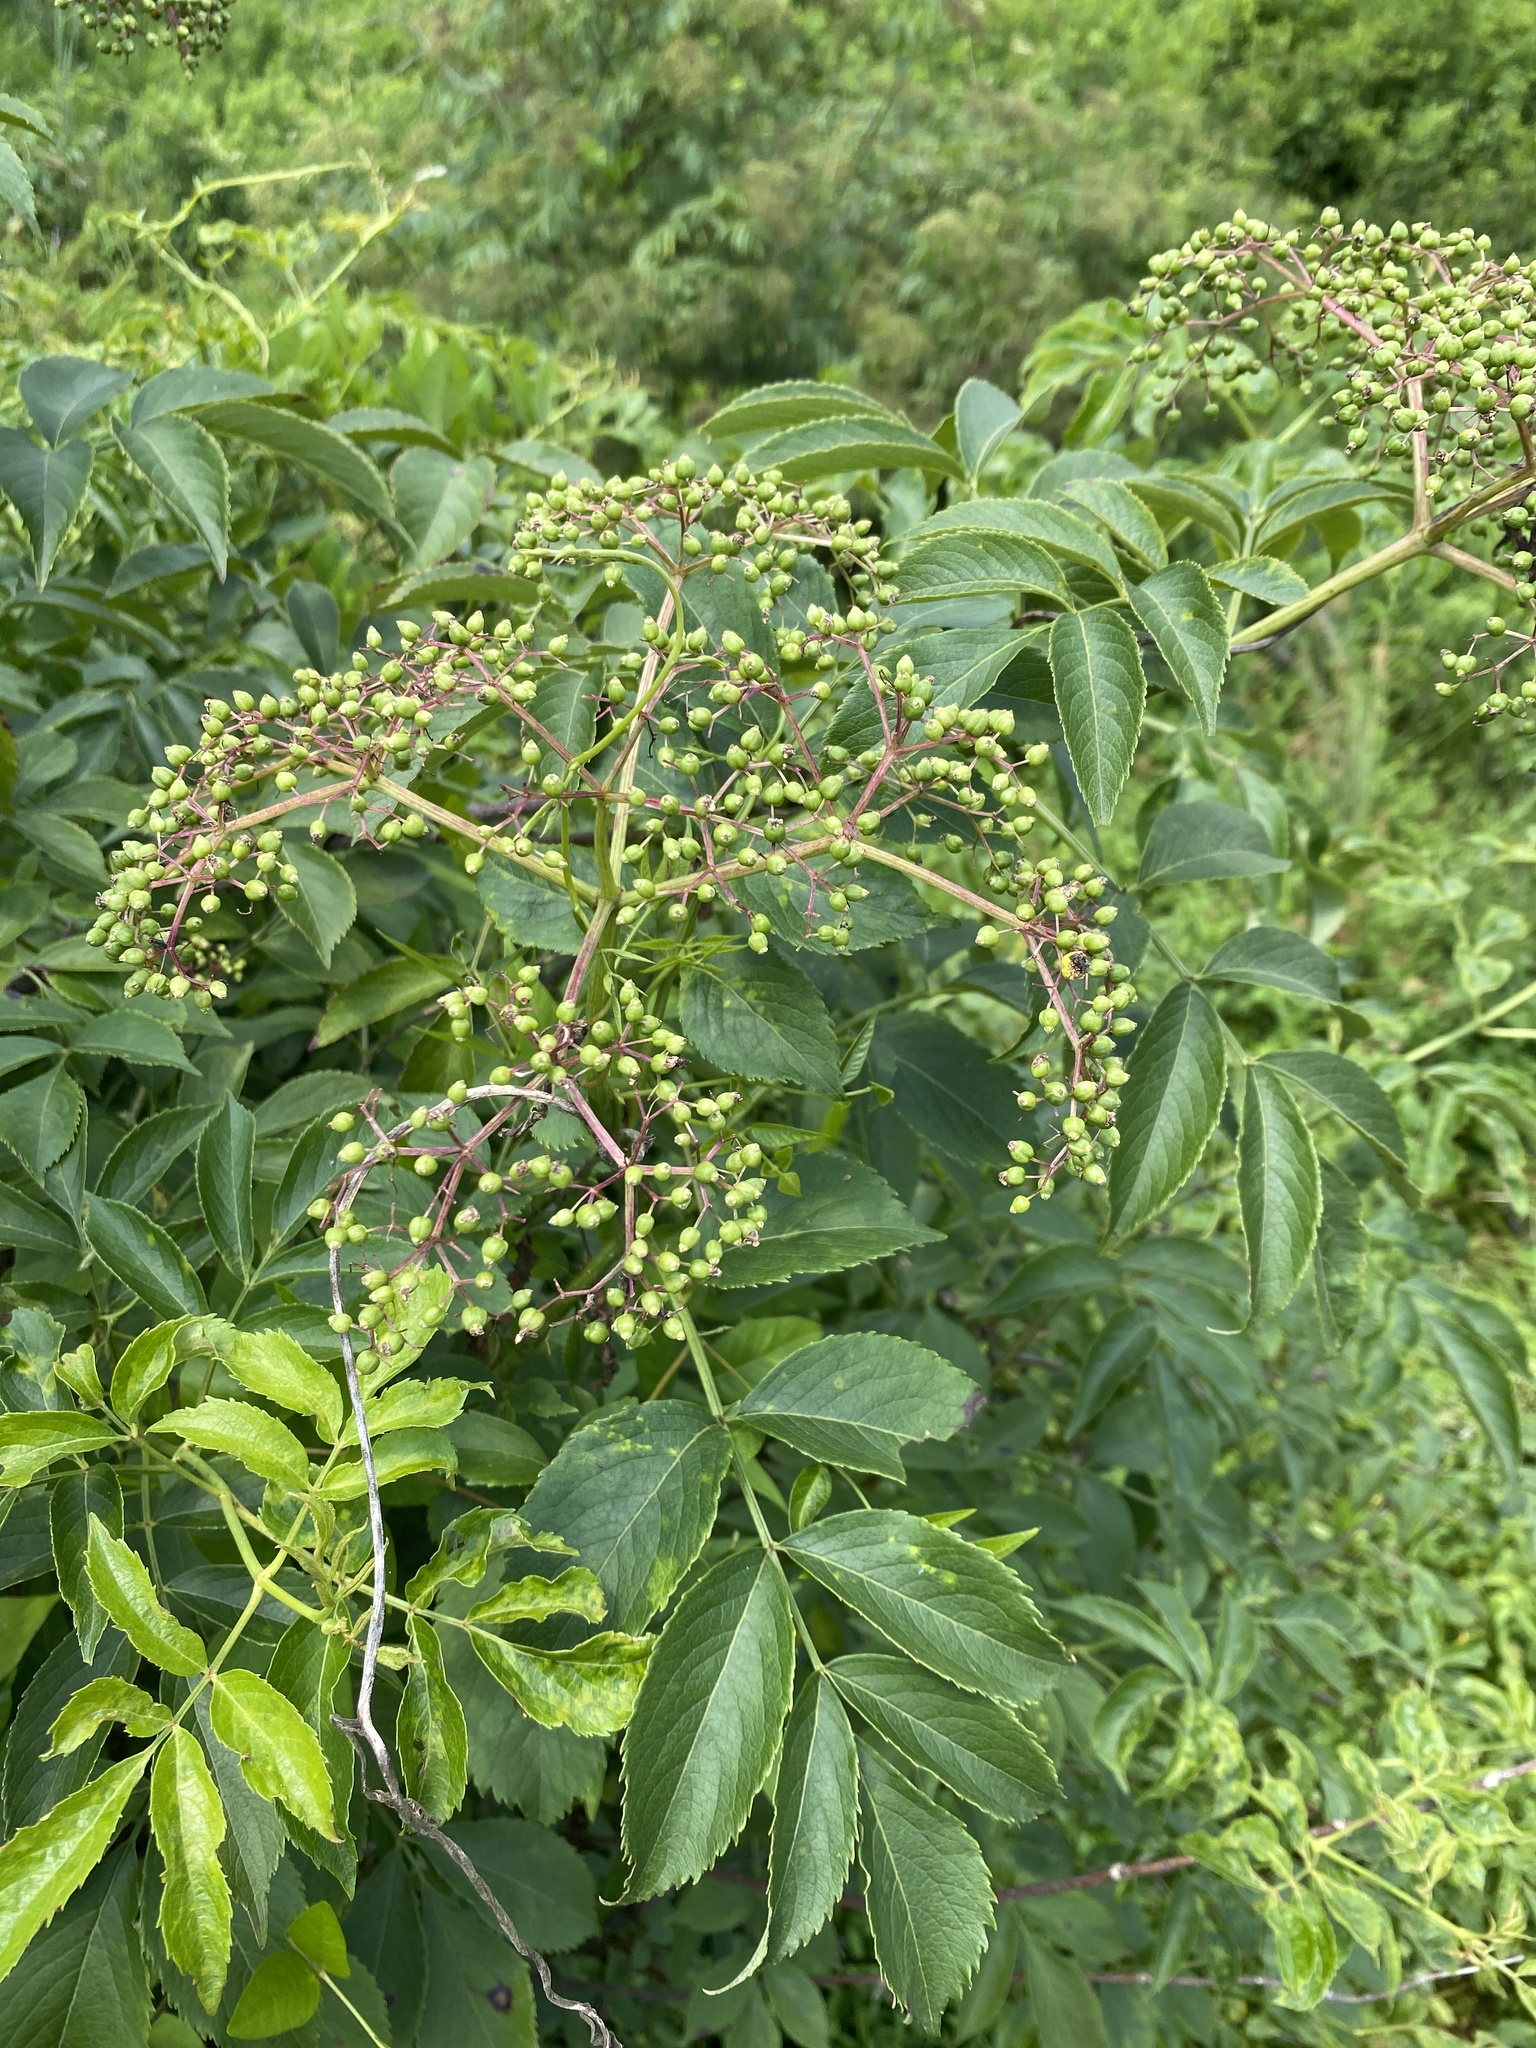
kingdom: Plantae
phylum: Tracheophyta
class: Magnoliopsida
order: Dipsacales
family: Viburnaceae
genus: Sambucus
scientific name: Sambucus canadensis
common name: American elder
